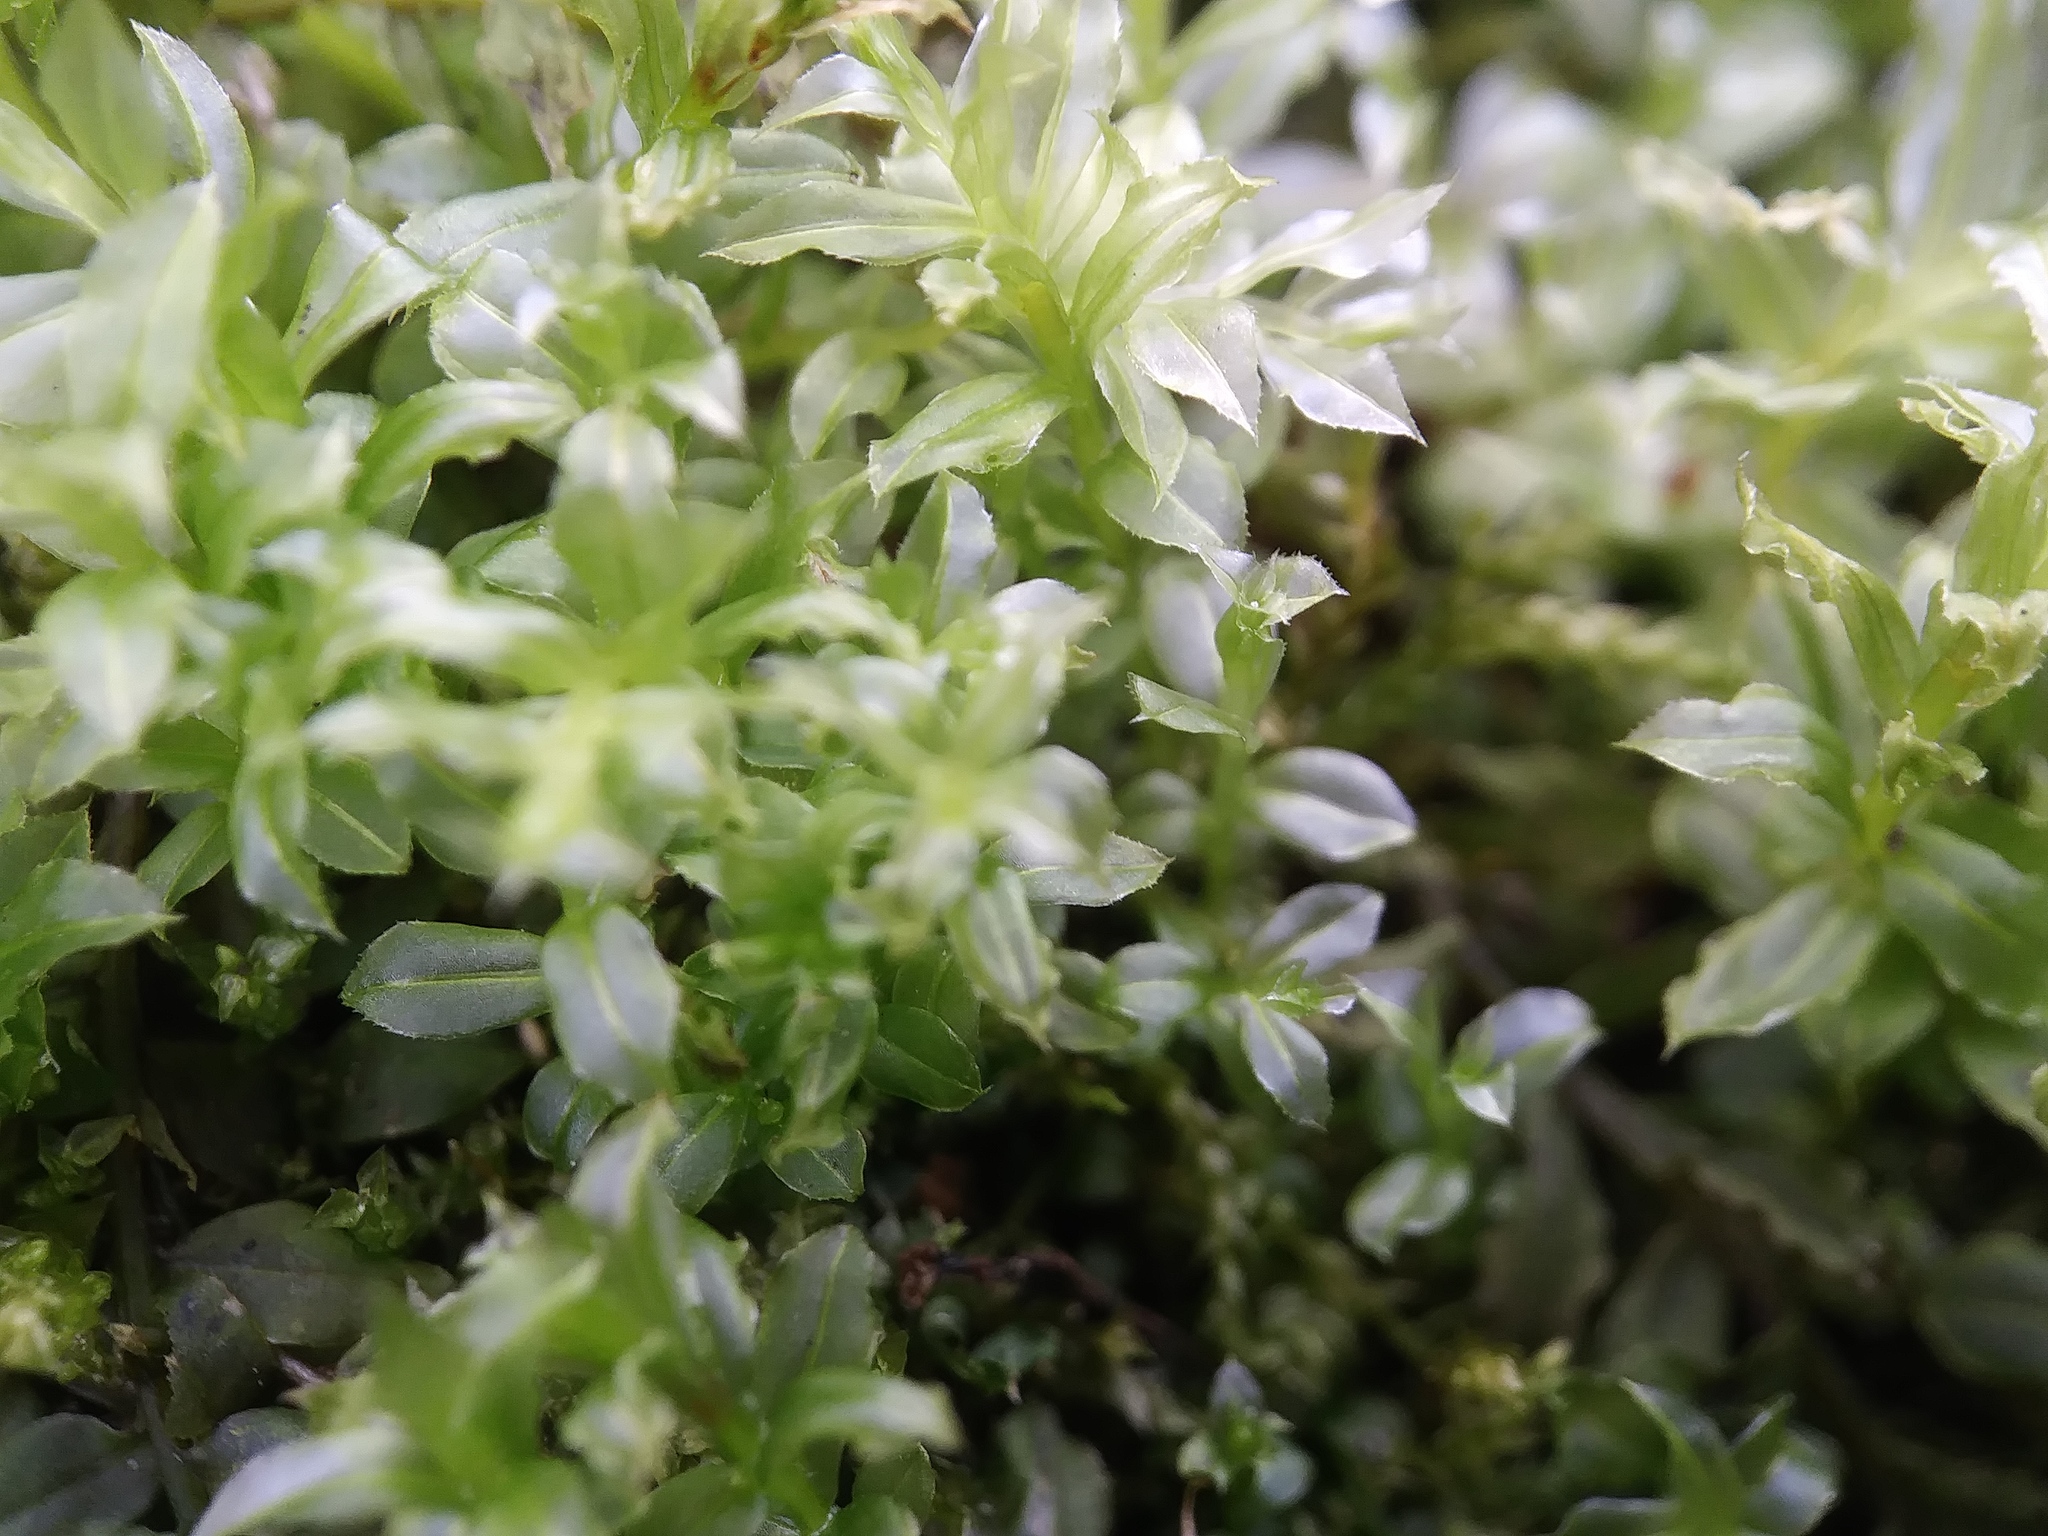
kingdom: Plantae
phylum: Bryophyta
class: Bryopsida
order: Bryales
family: Mniaceae
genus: Plagiomnium
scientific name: Plagiomnium cuspidatum
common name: Woodsy leafy moss
